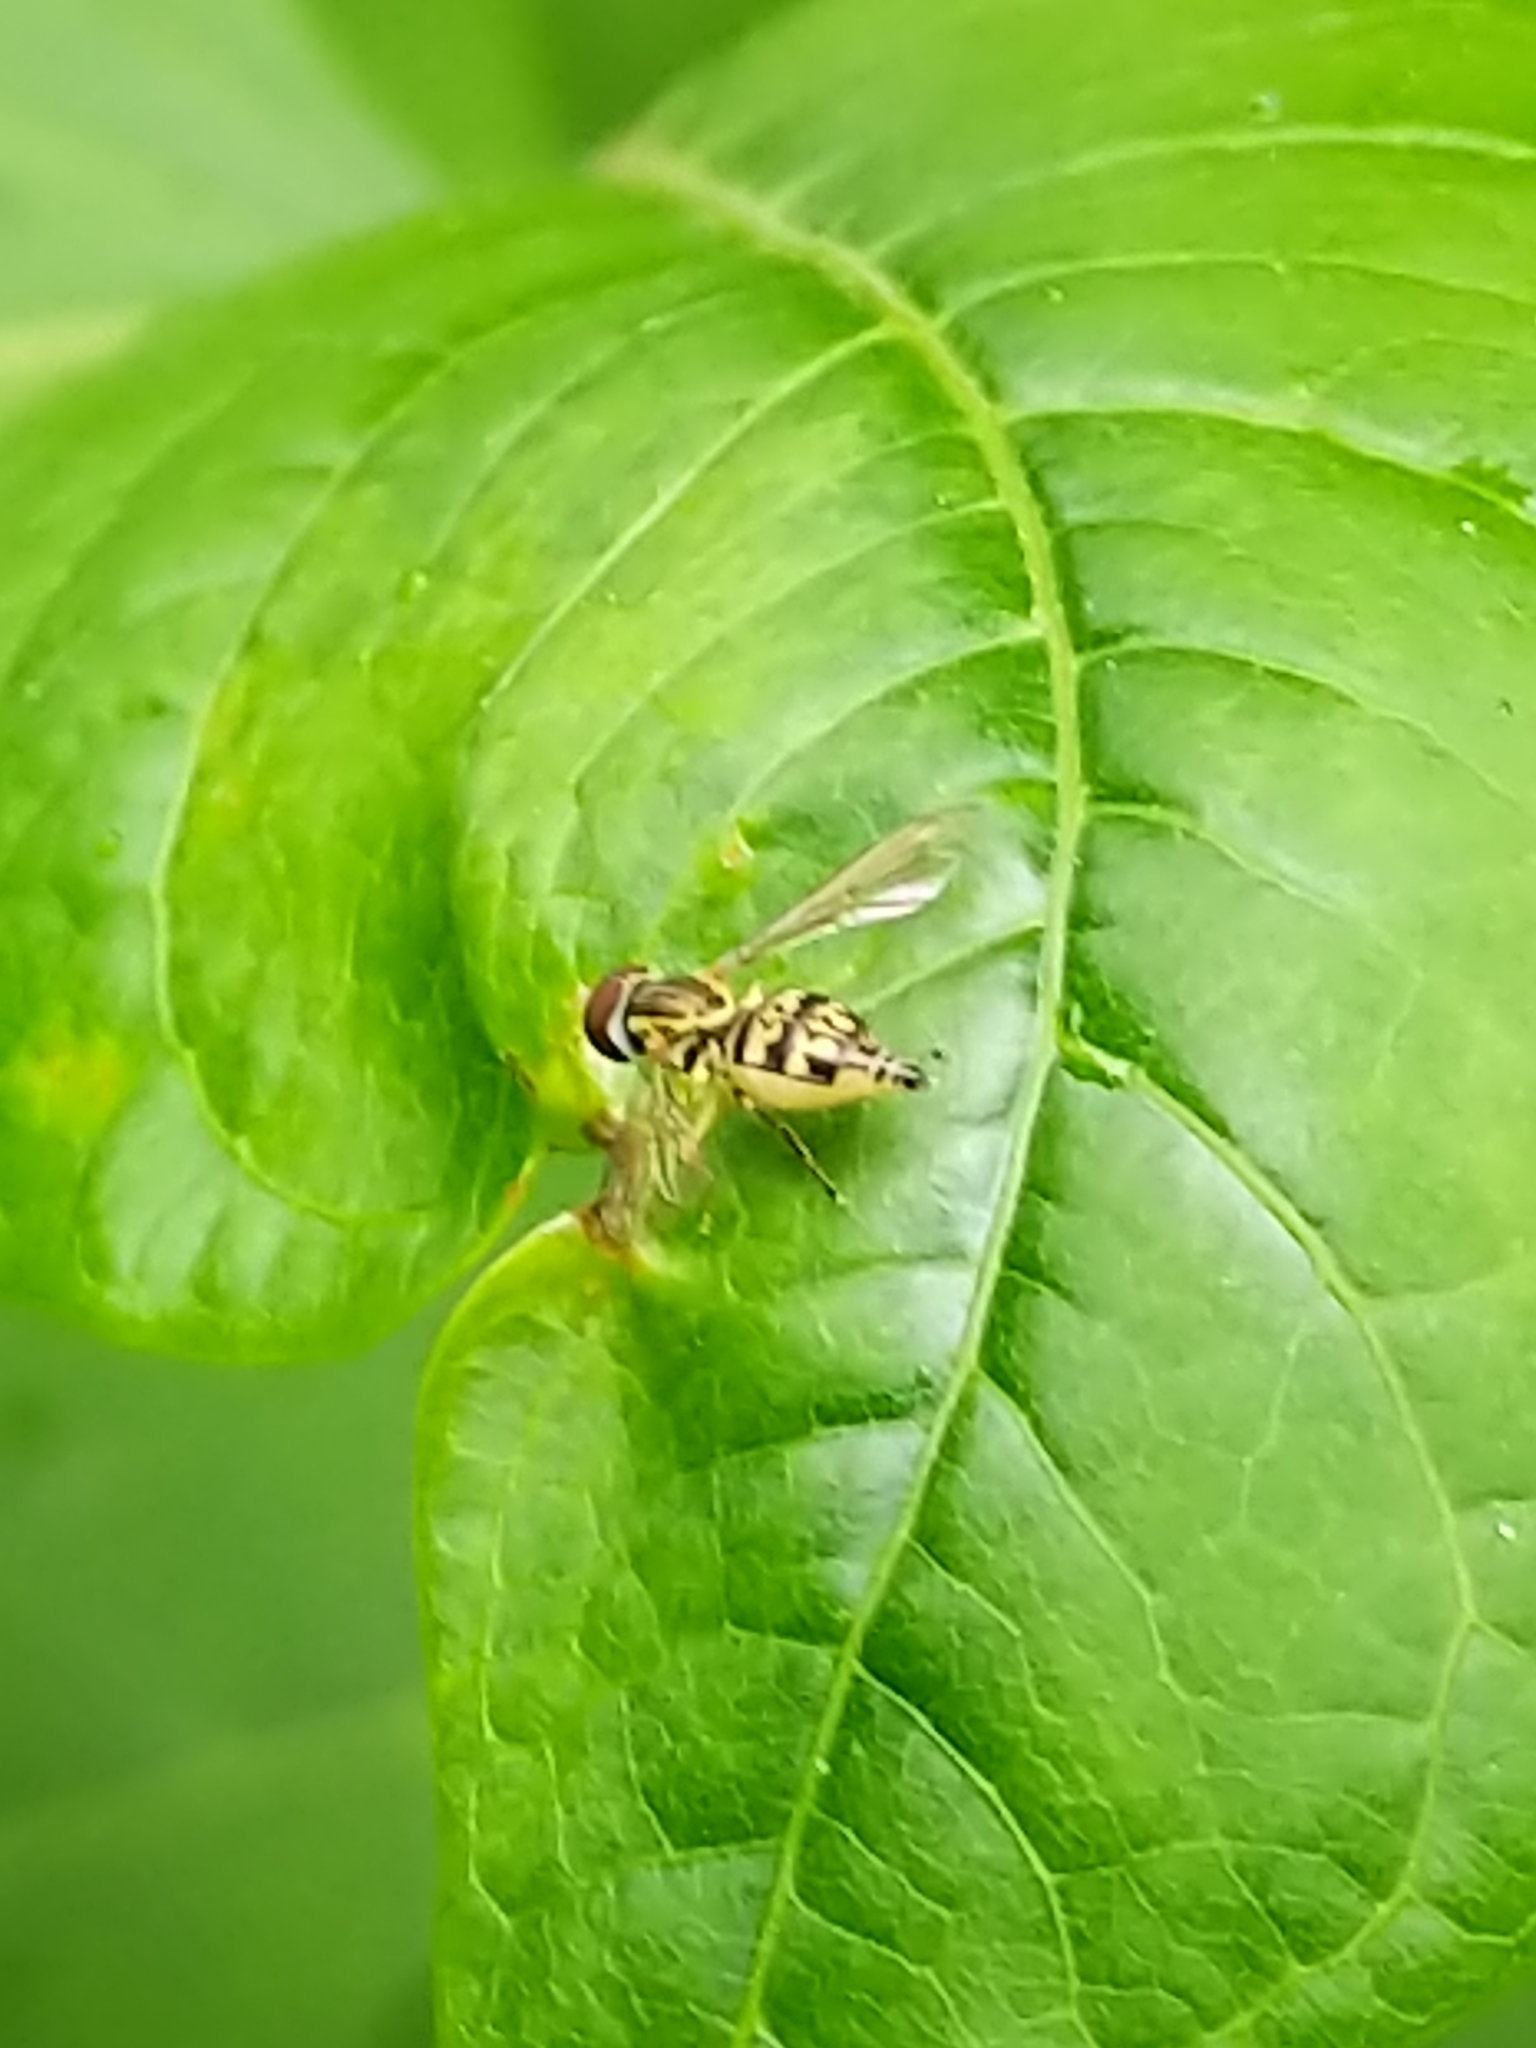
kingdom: Animalia
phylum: Arthropoda
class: Insecta
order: Diptera
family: Syrphidae
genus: Toxomerus
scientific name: Toxomerus geminatus
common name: Eastern calligrapher
